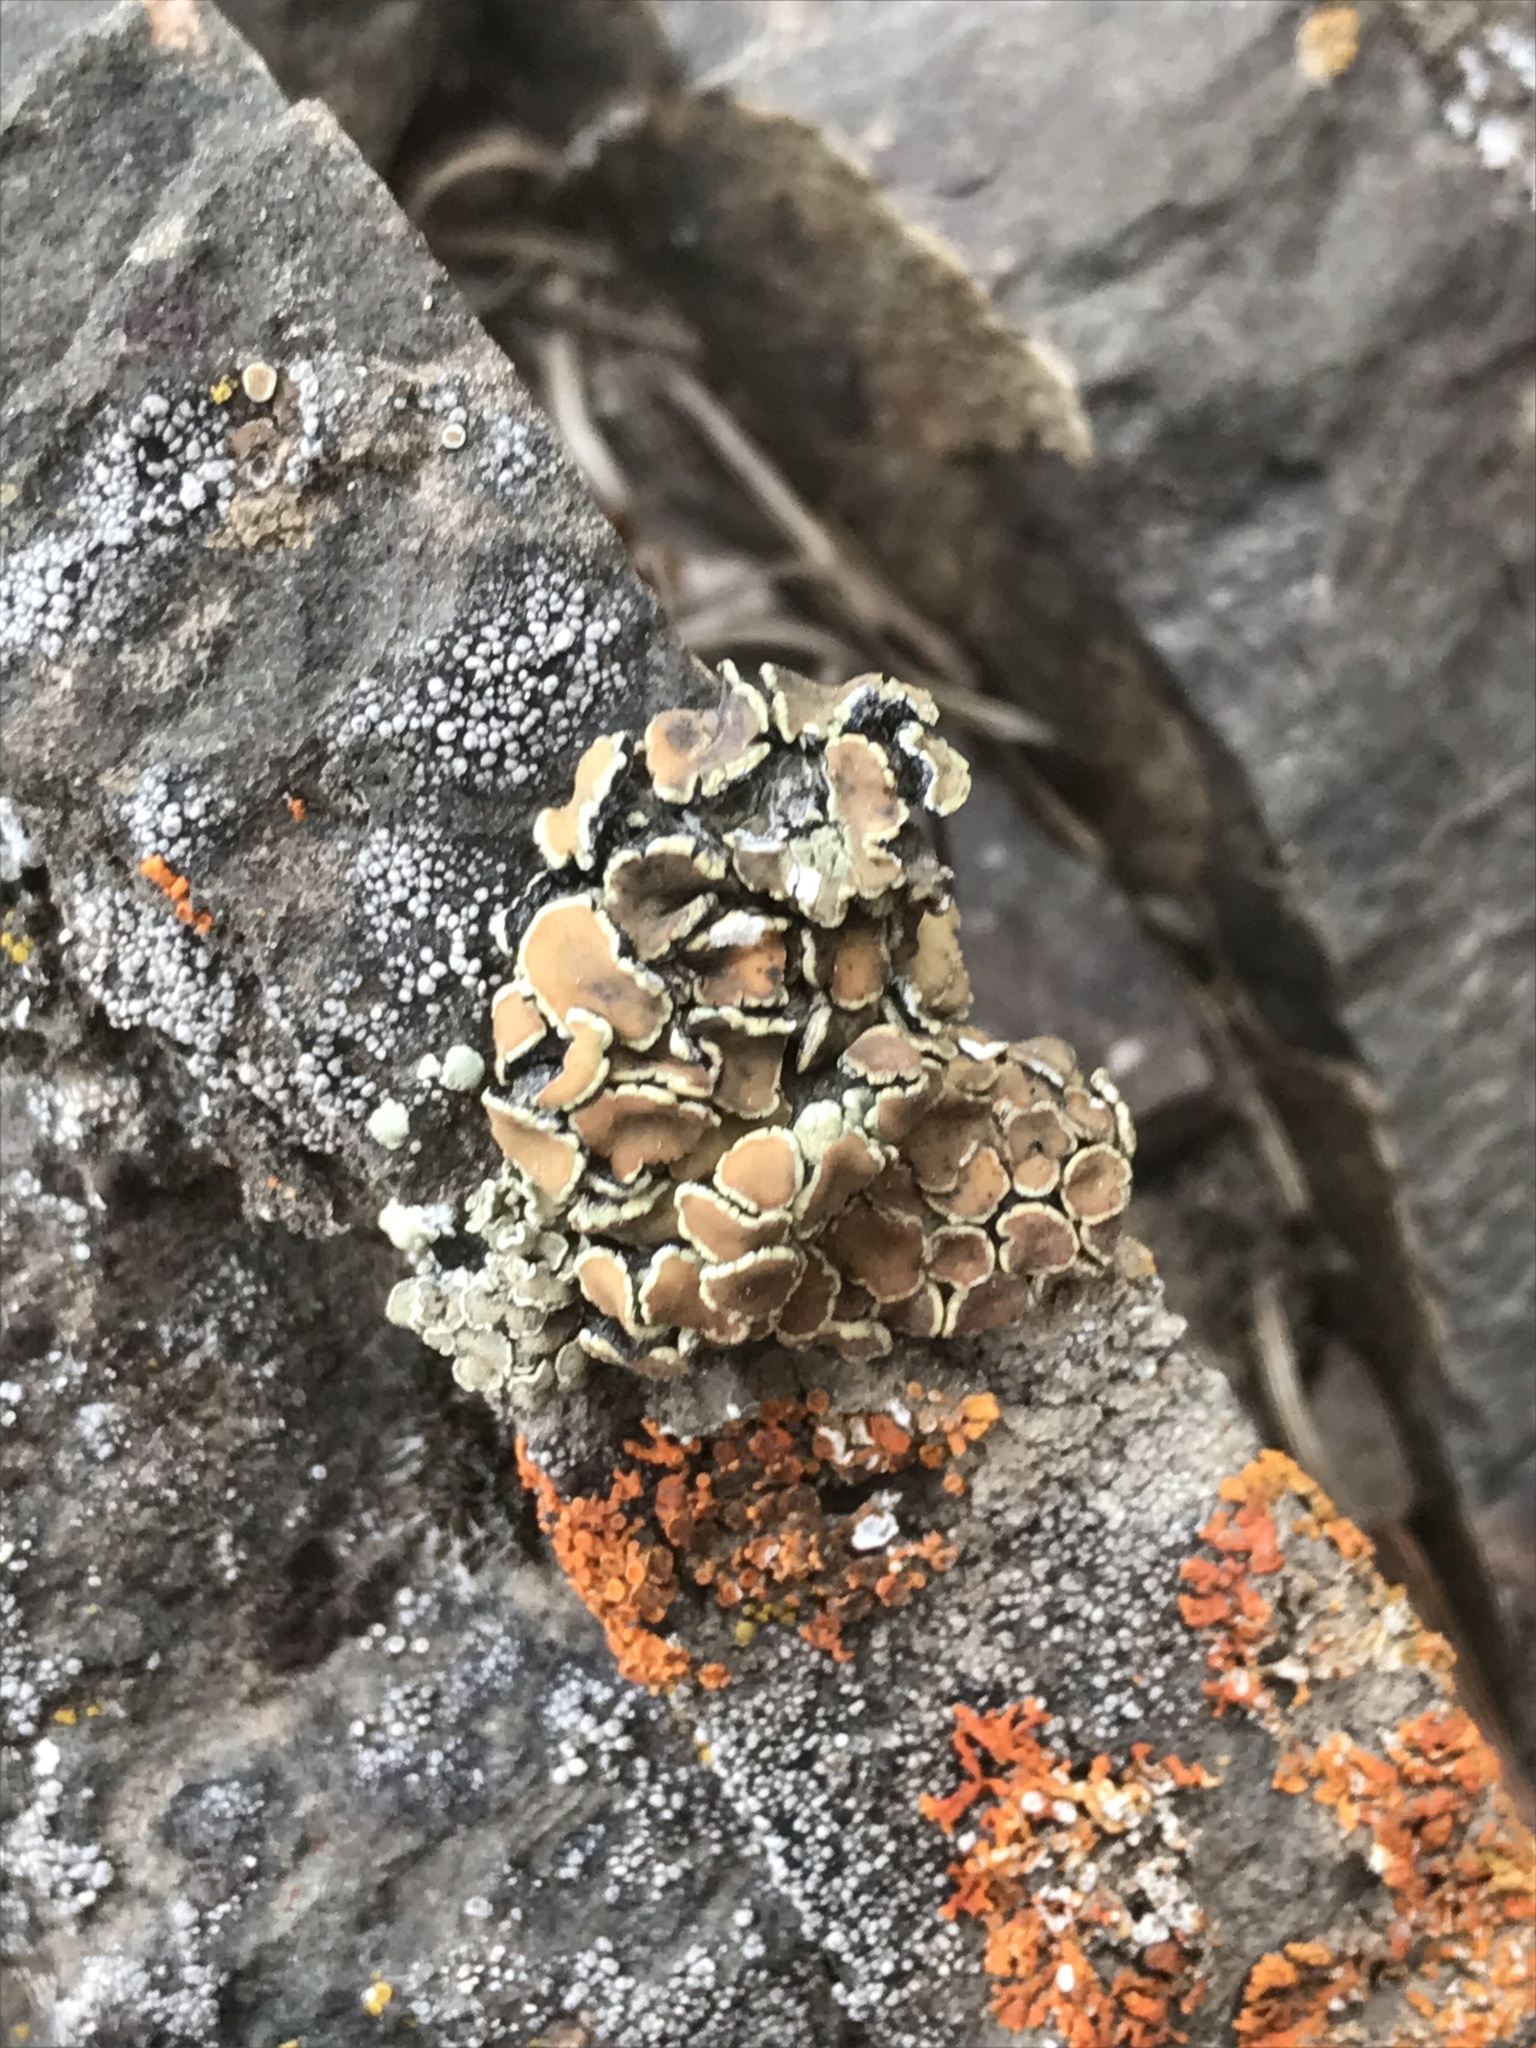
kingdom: Fungi
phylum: Ascomycota
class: Lecanoromycetes
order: Lecanorales
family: Lecanoraceae
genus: Omphalodina
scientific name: Omphalodina chrysoleuca
